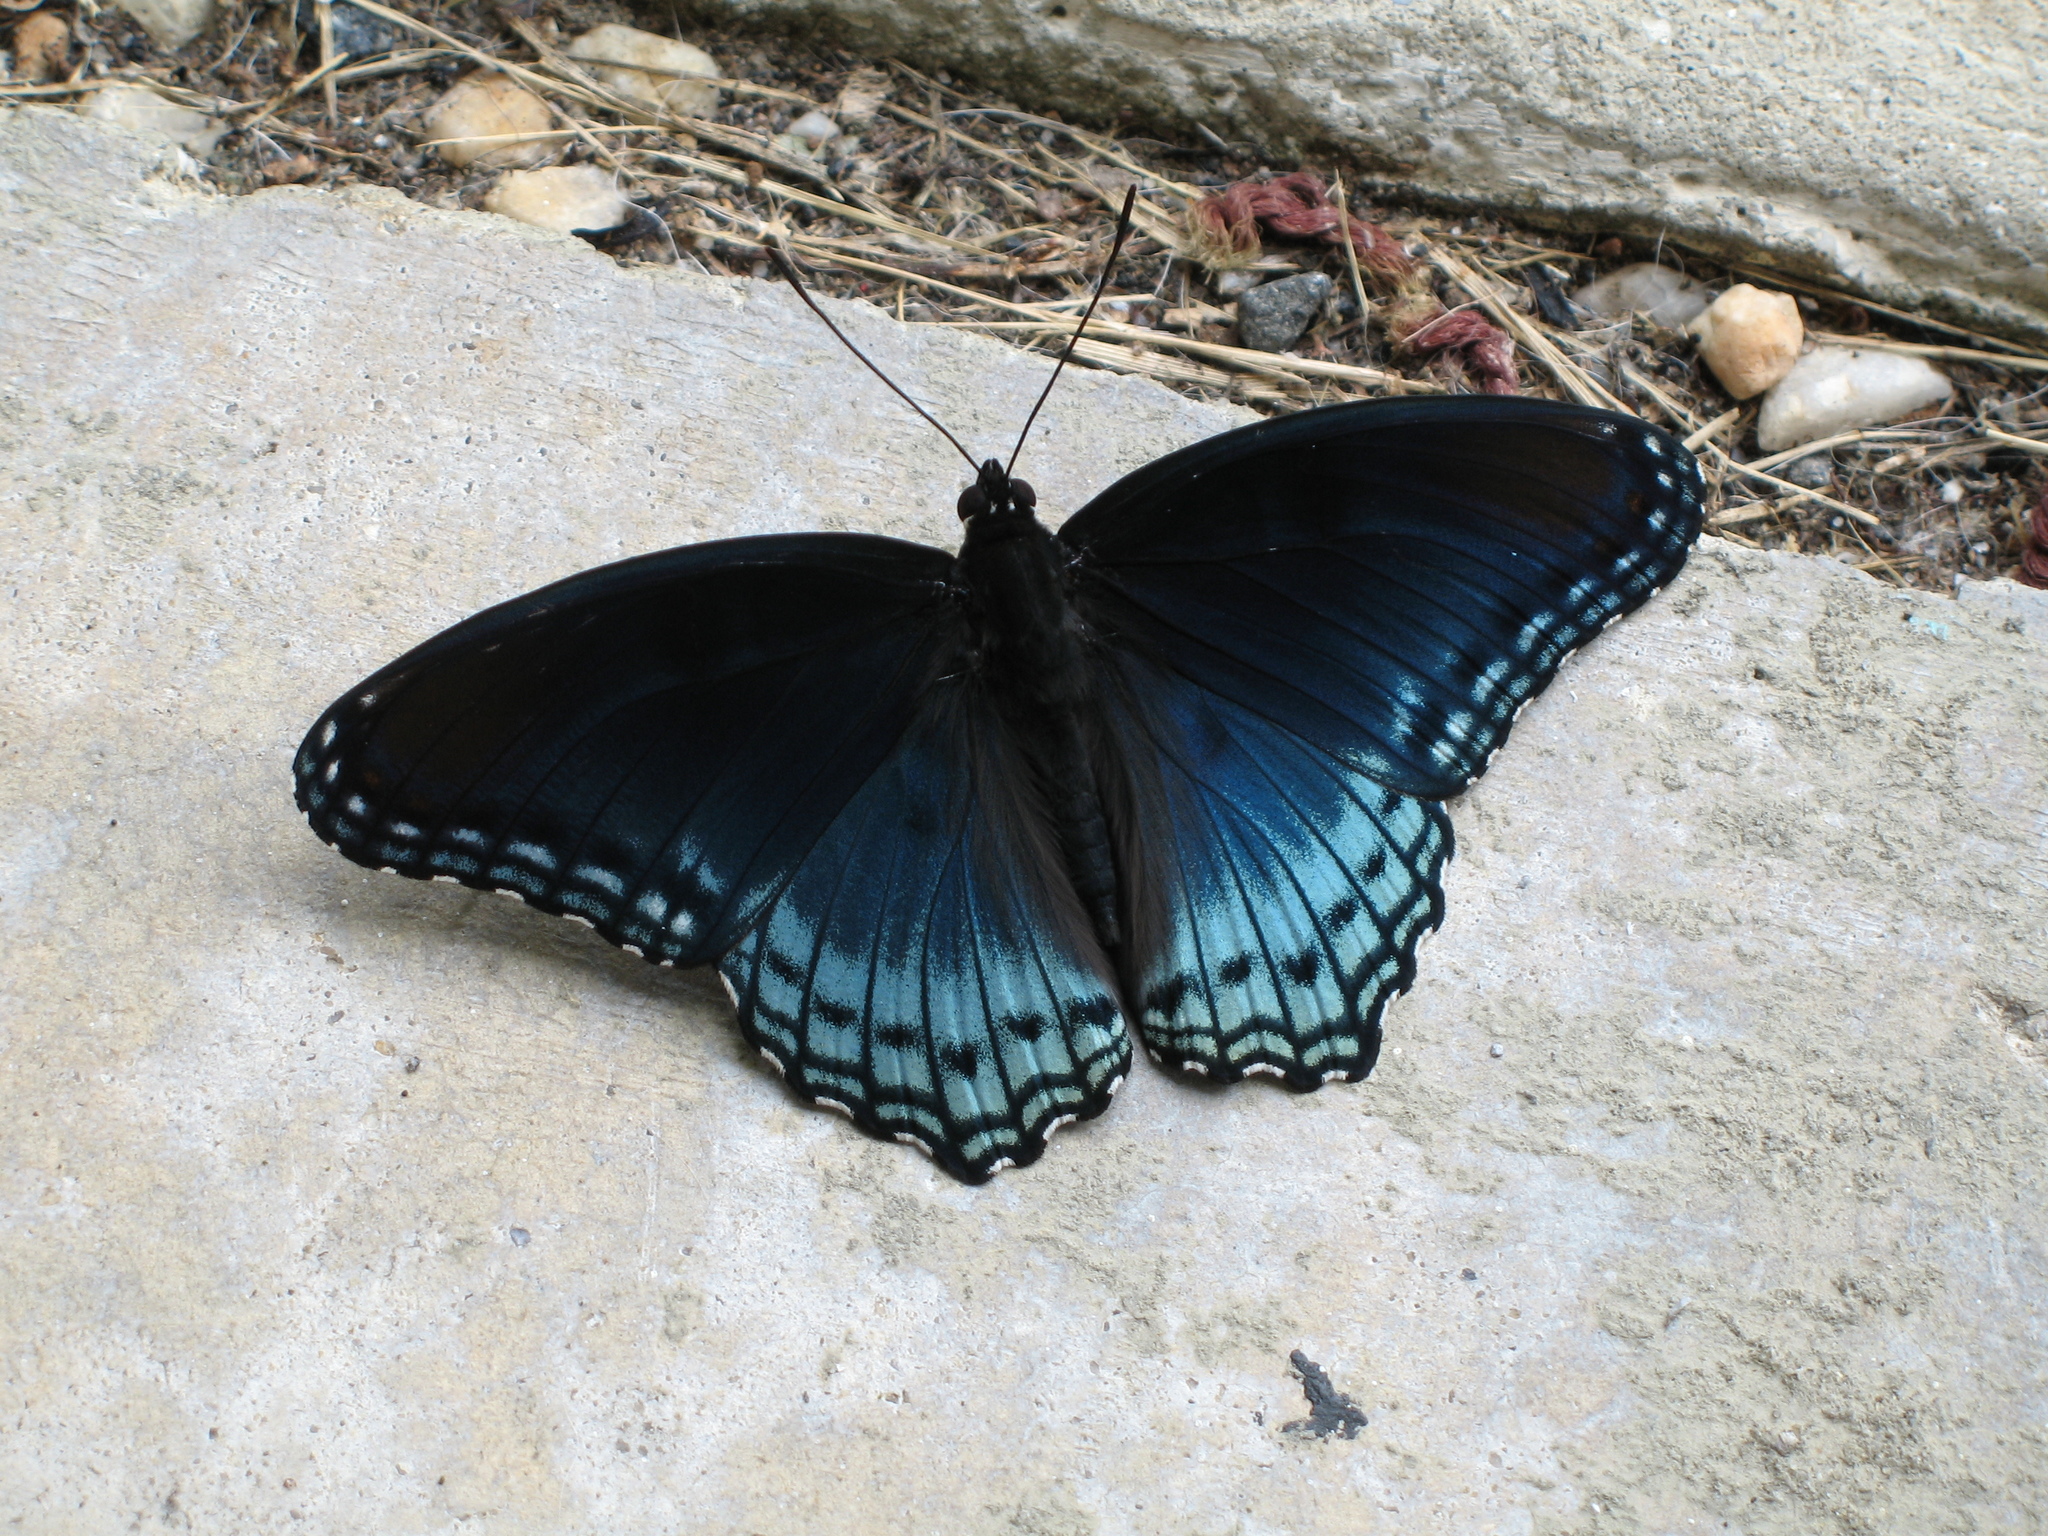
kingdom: Animalia
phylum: Arthropoda
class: Insecta
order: Lepidoptera
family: Nymphalidae
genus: Limenitis
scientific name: Limenitis astyanax
